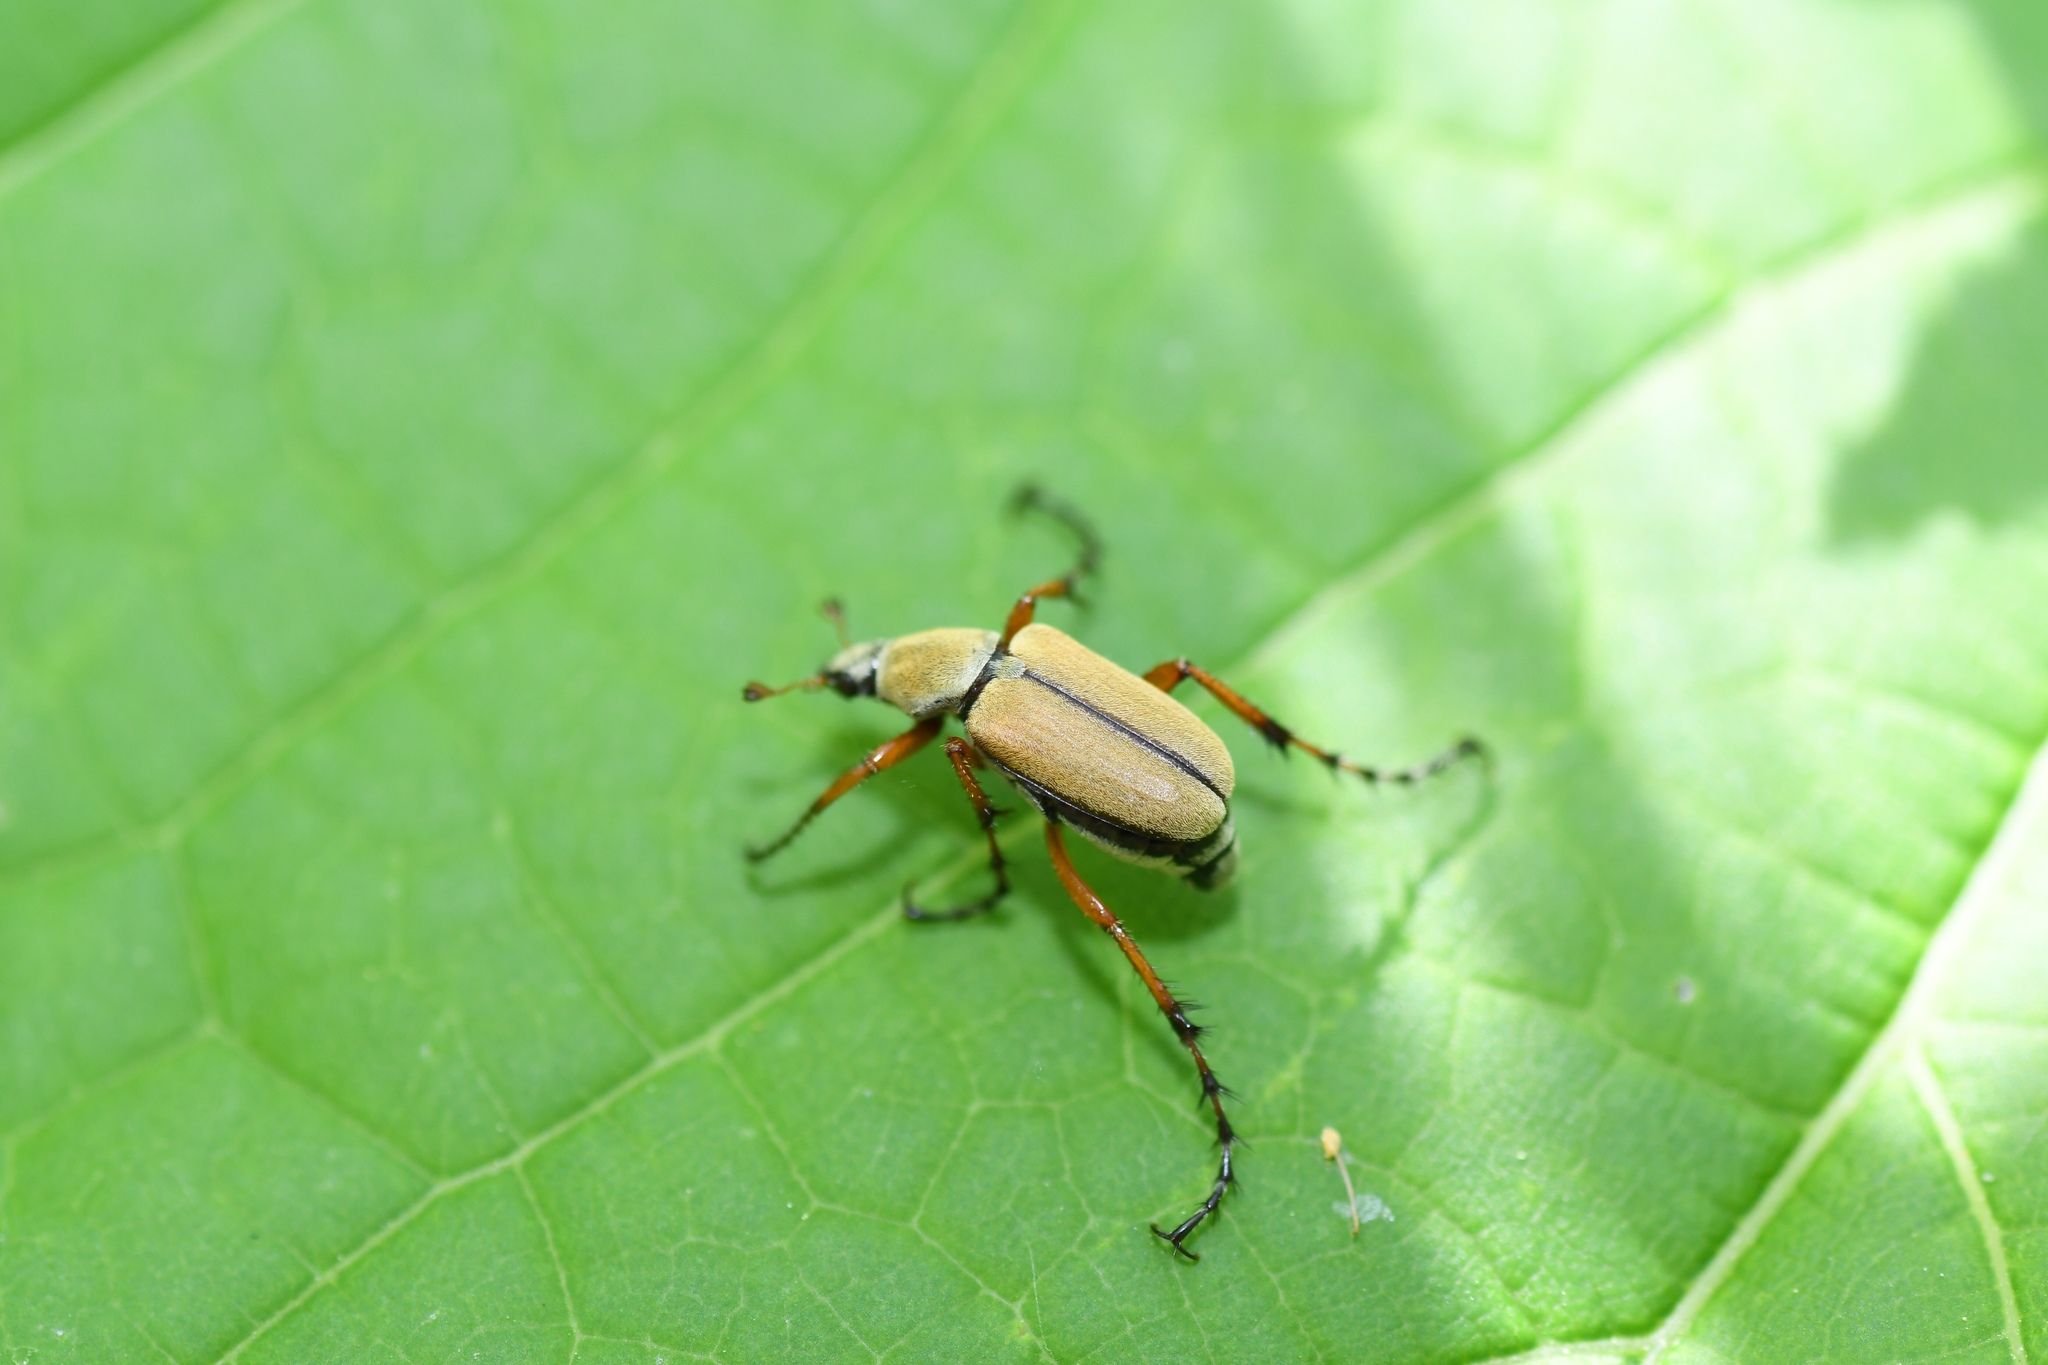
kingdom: Animalia
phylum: Arthropoda
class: Insecta
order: Coleoptera
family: Scarabaeidae
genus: Macrodactylus
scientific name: Macrodactylus subspinosus
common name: American rose chafer
